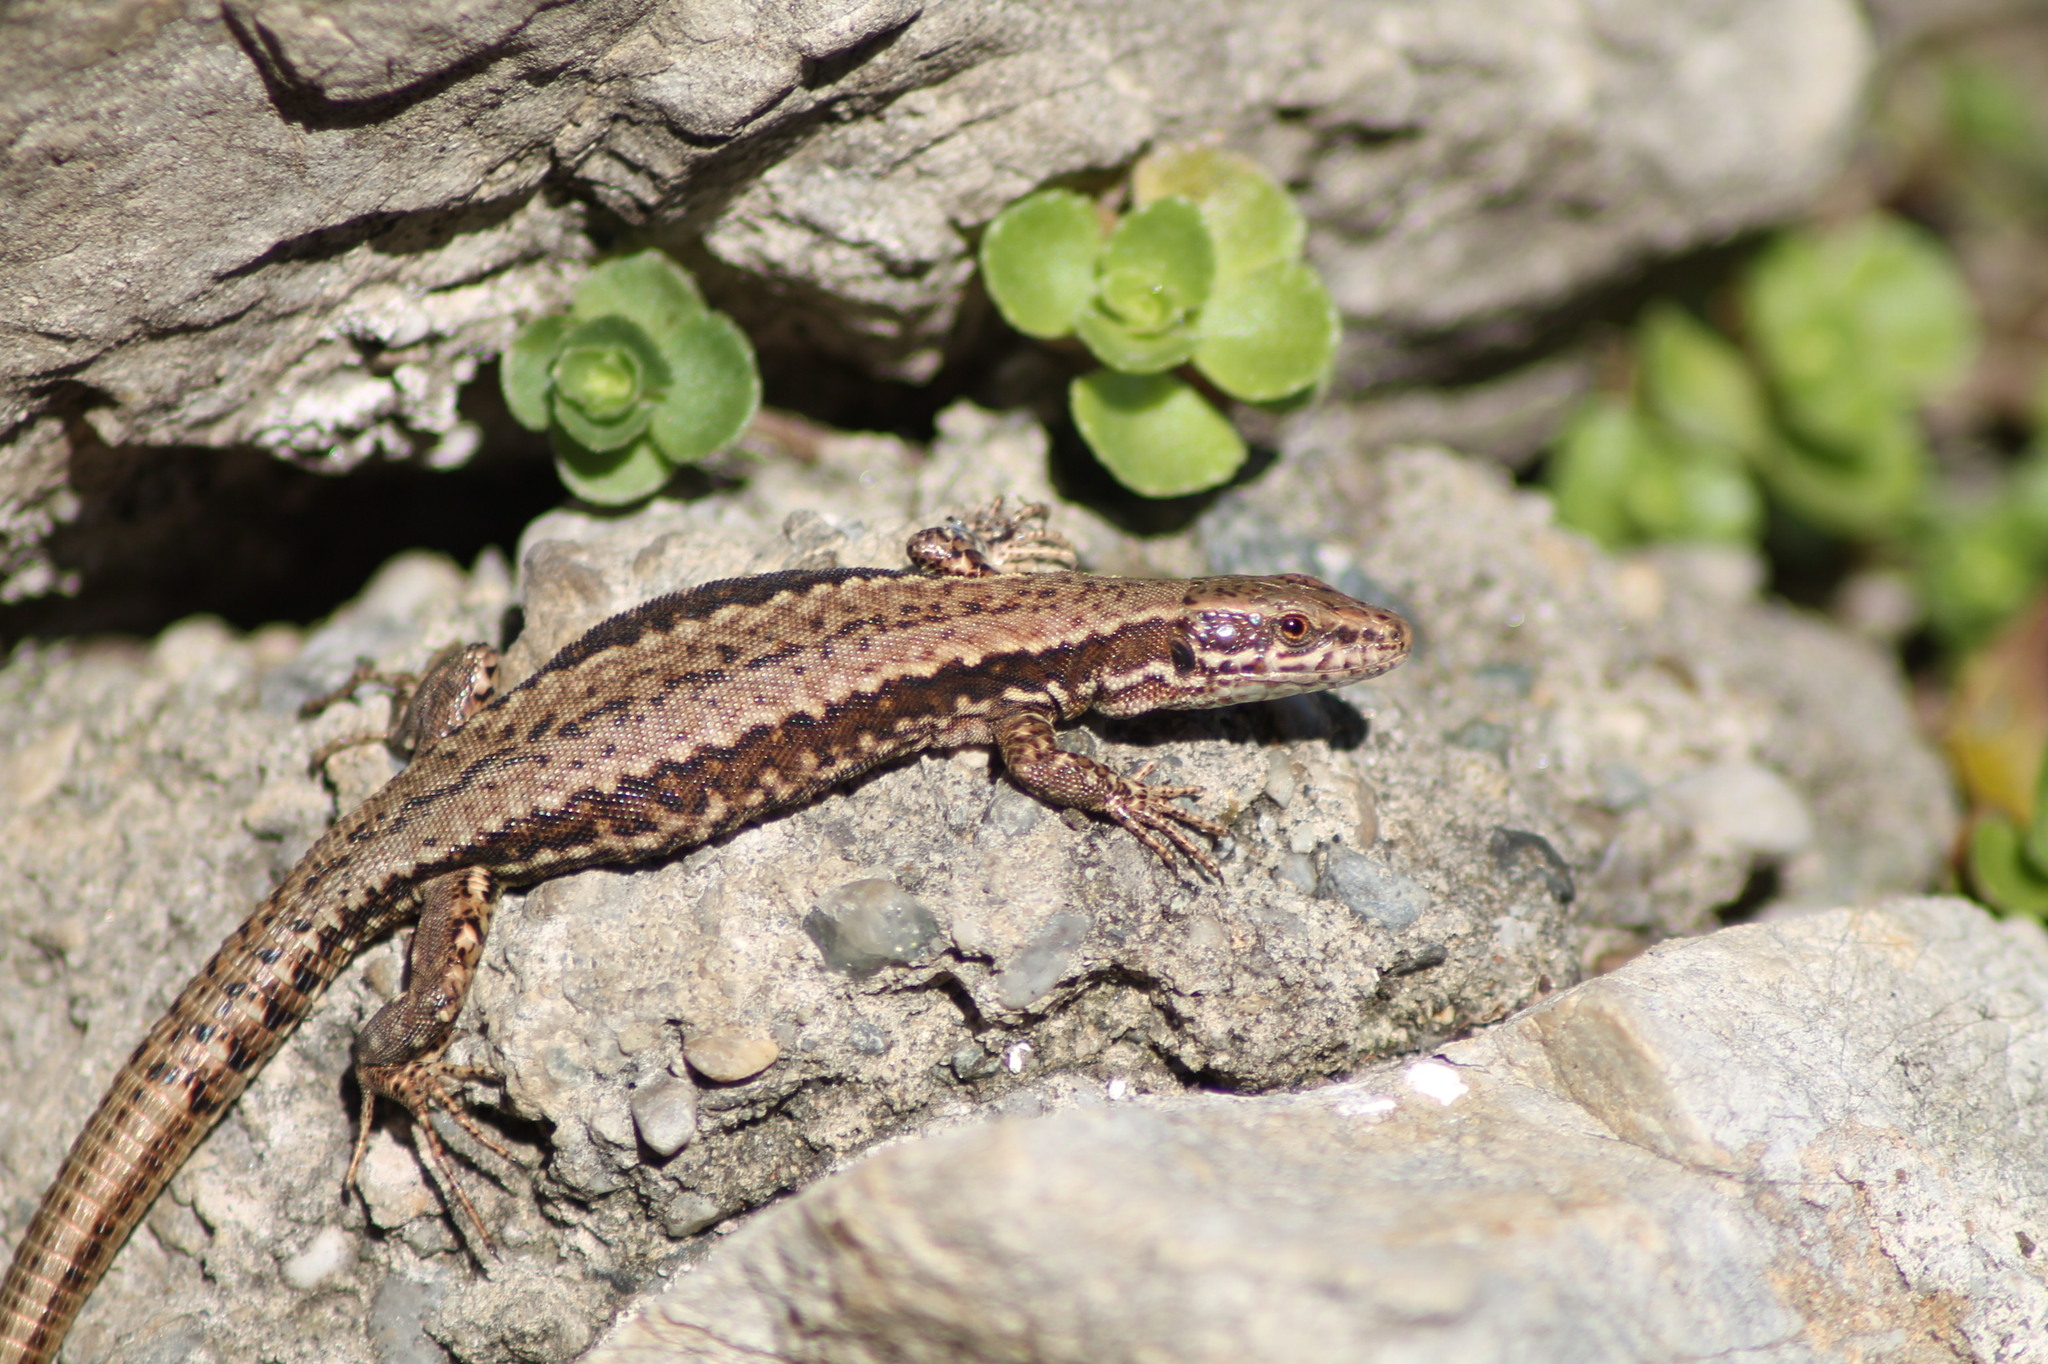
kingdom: Animalia
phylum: Chordata
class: Squamata
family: Lacertidae
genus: Podarcis
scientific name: Podarcis muralis
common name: Common wall lizard
